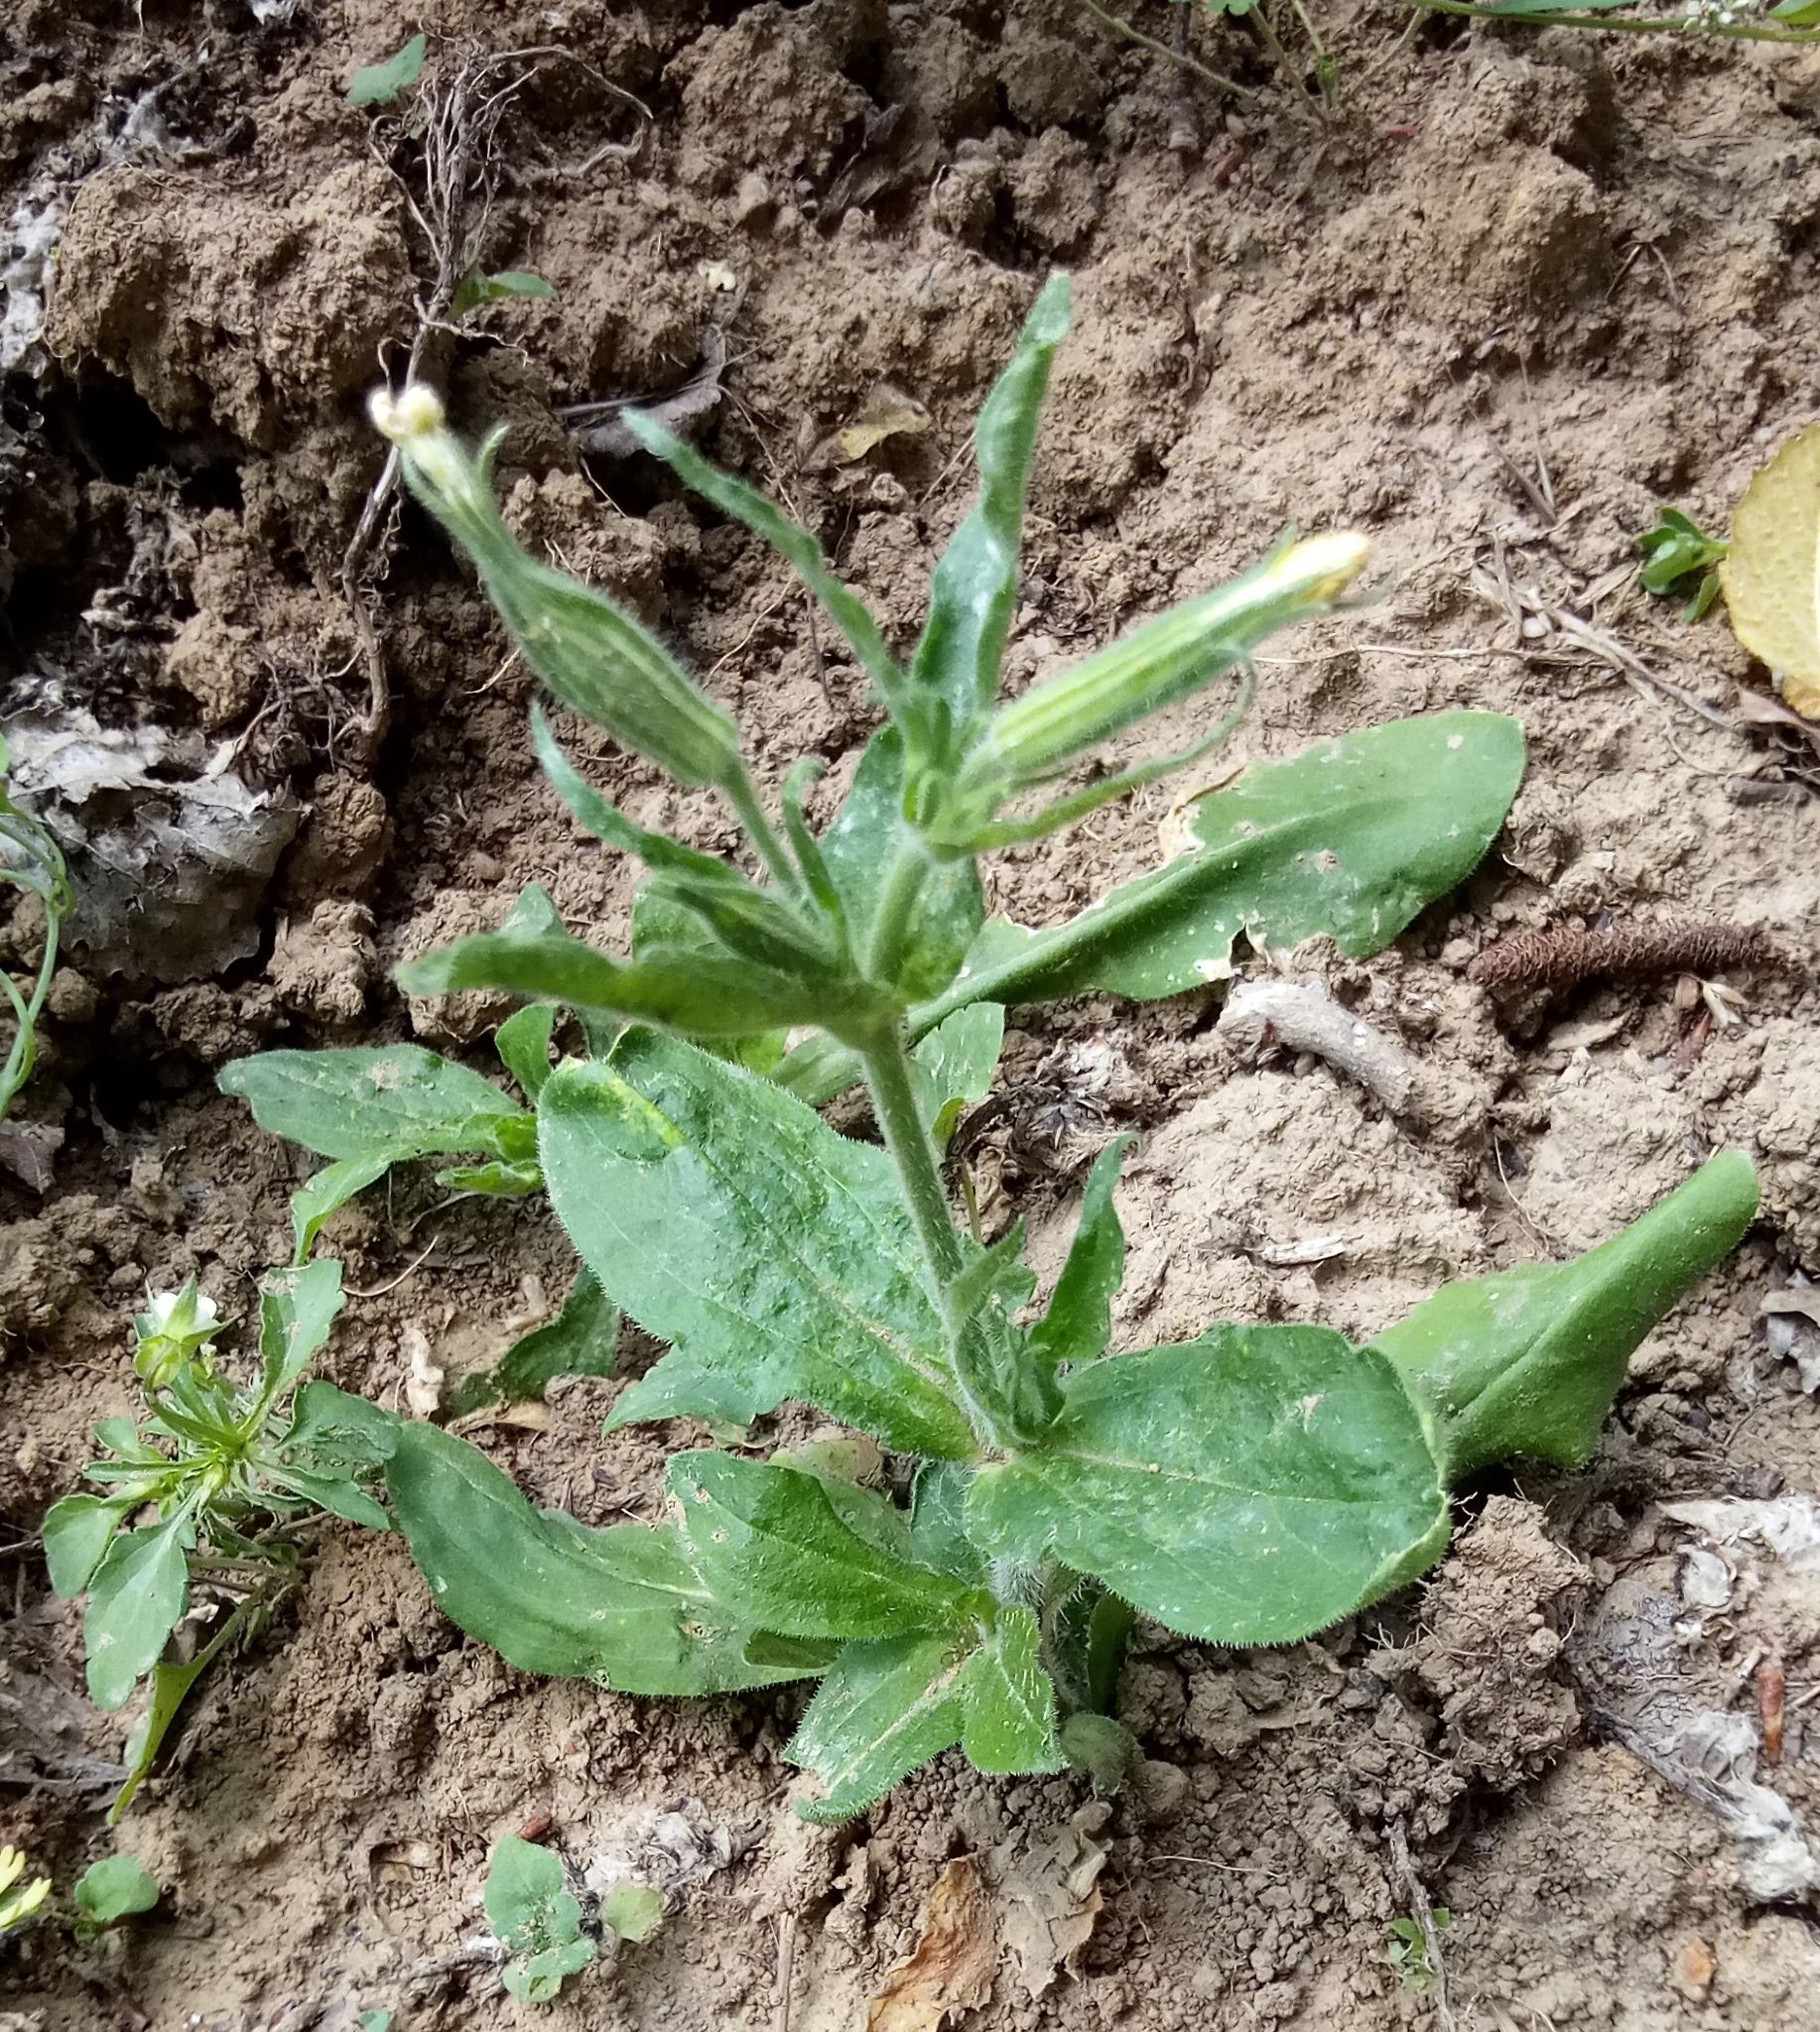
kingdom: Plantae
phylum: Tracheophyta
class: Magnoliopsida
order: Caryophyllales
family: Caryophyllaceae
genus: Silene
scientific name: Silene noctiflora
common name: Night-flowering catchfly
